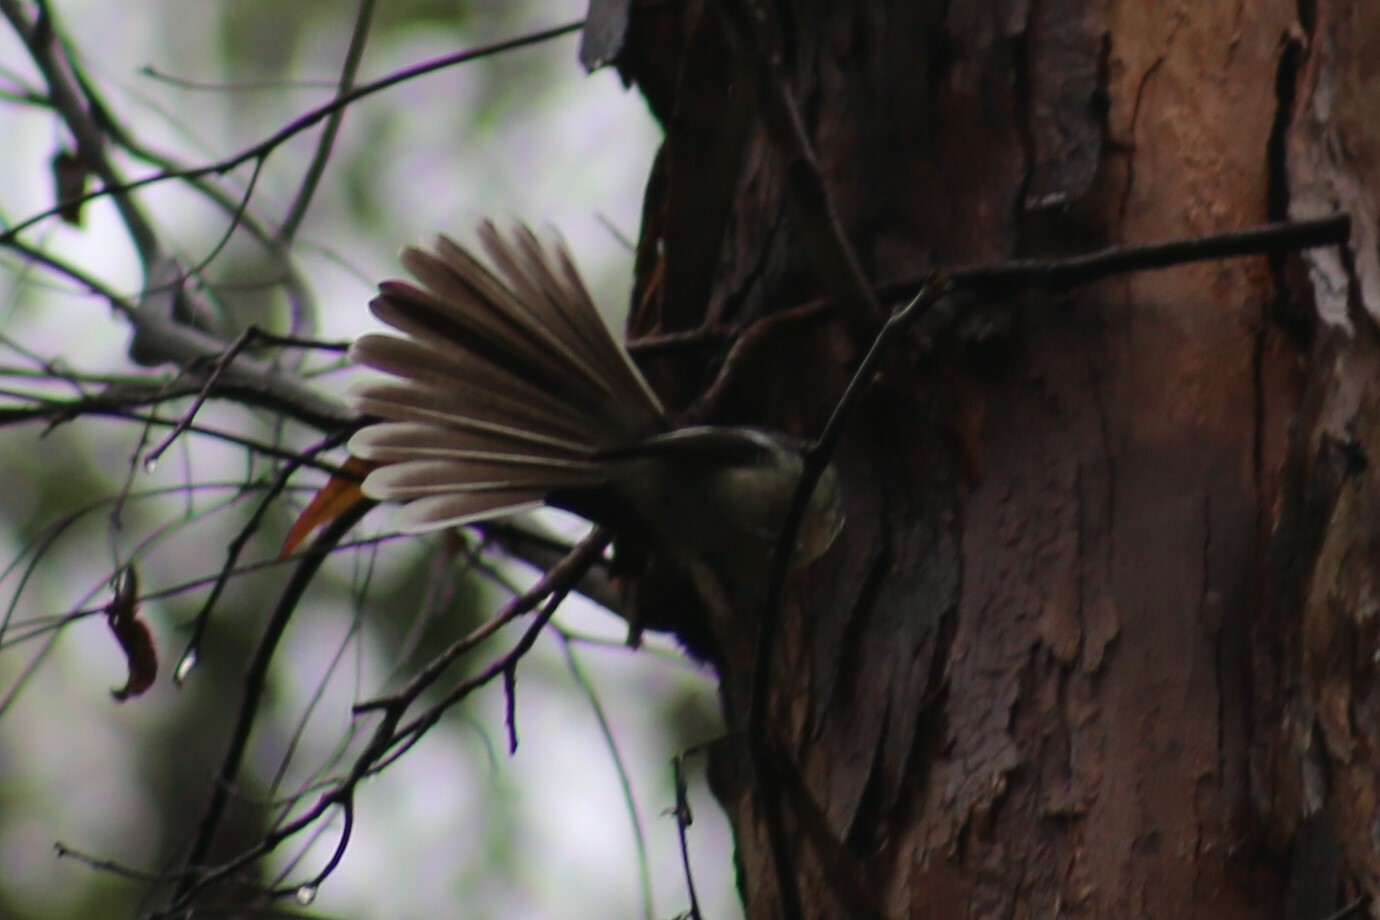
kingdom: Animalia
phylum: Chordata
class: Aves
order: Passeriformes
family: Rhipiduridae
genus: Rhipidura
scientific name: Rhipidura albiscapa
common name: Grey fantail
